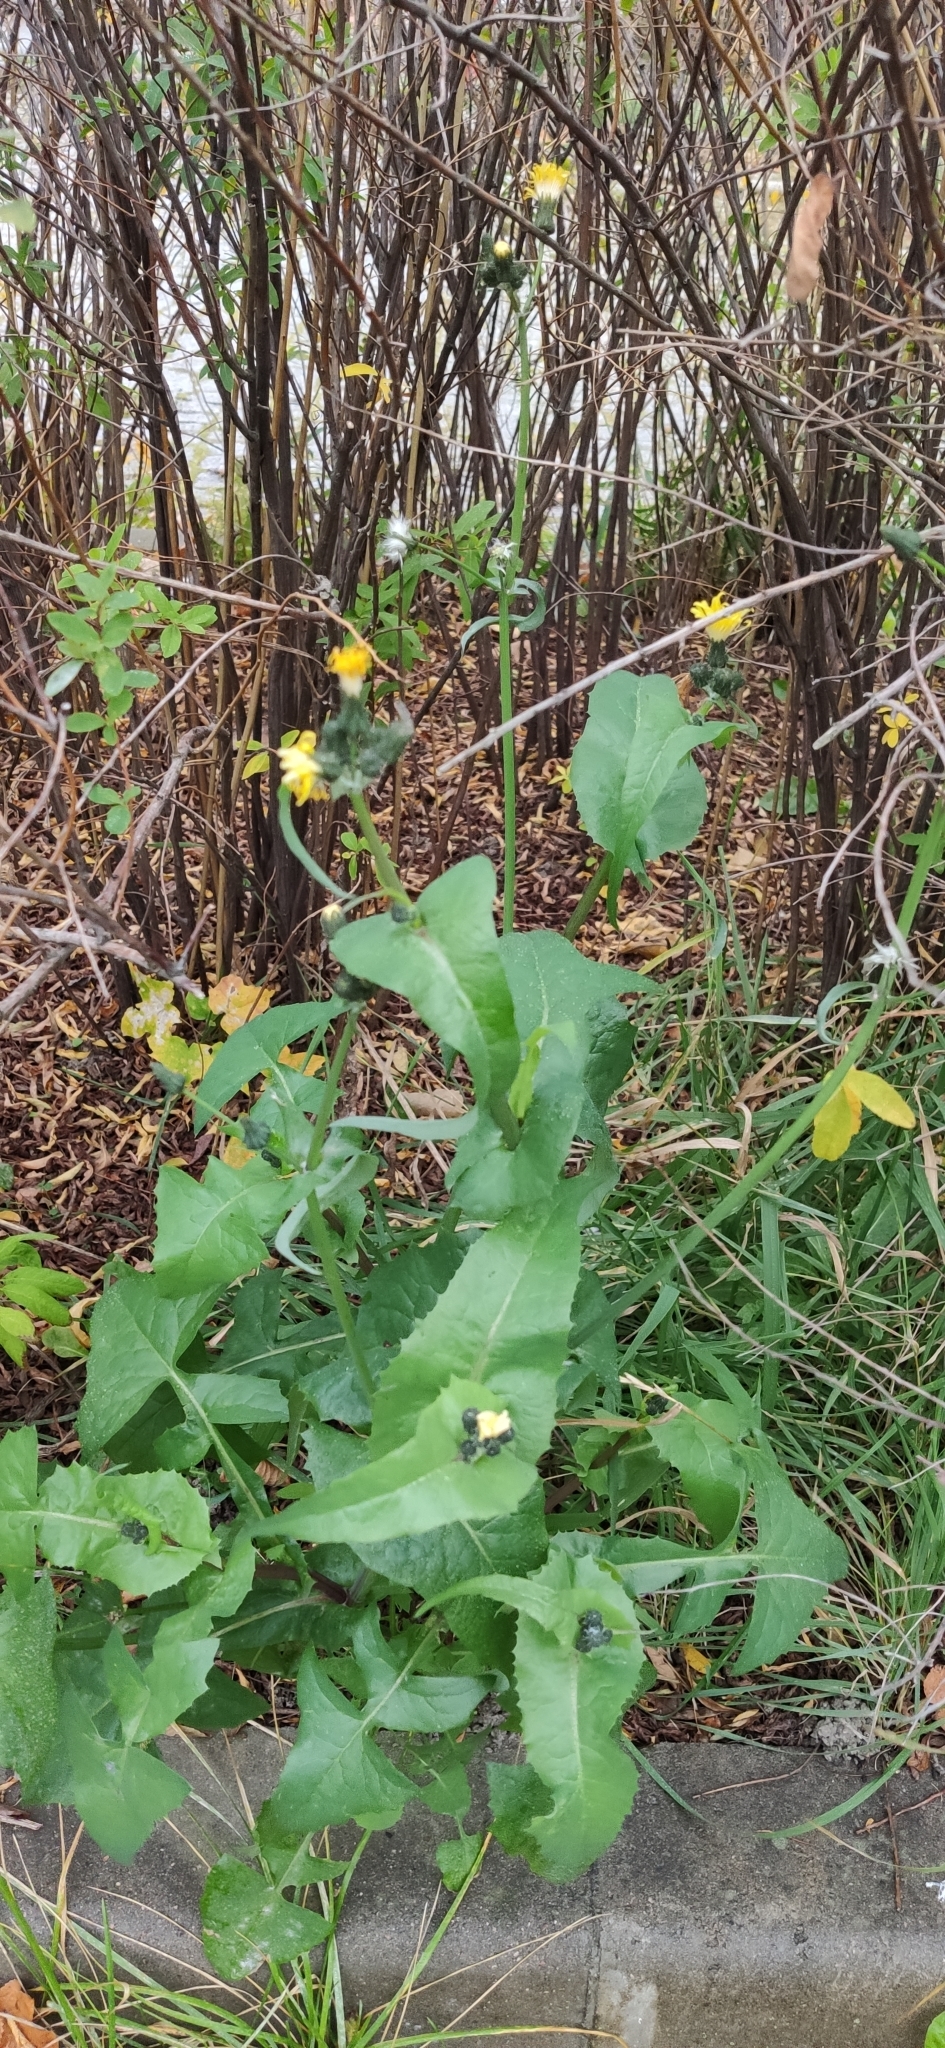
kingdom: Plantae
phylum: Tracheophyta
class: Magnoliopsida
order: Asterales
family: Asteraceae
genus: Sonchus
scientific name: Sonchus oleraceus
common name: Common sowthistle
